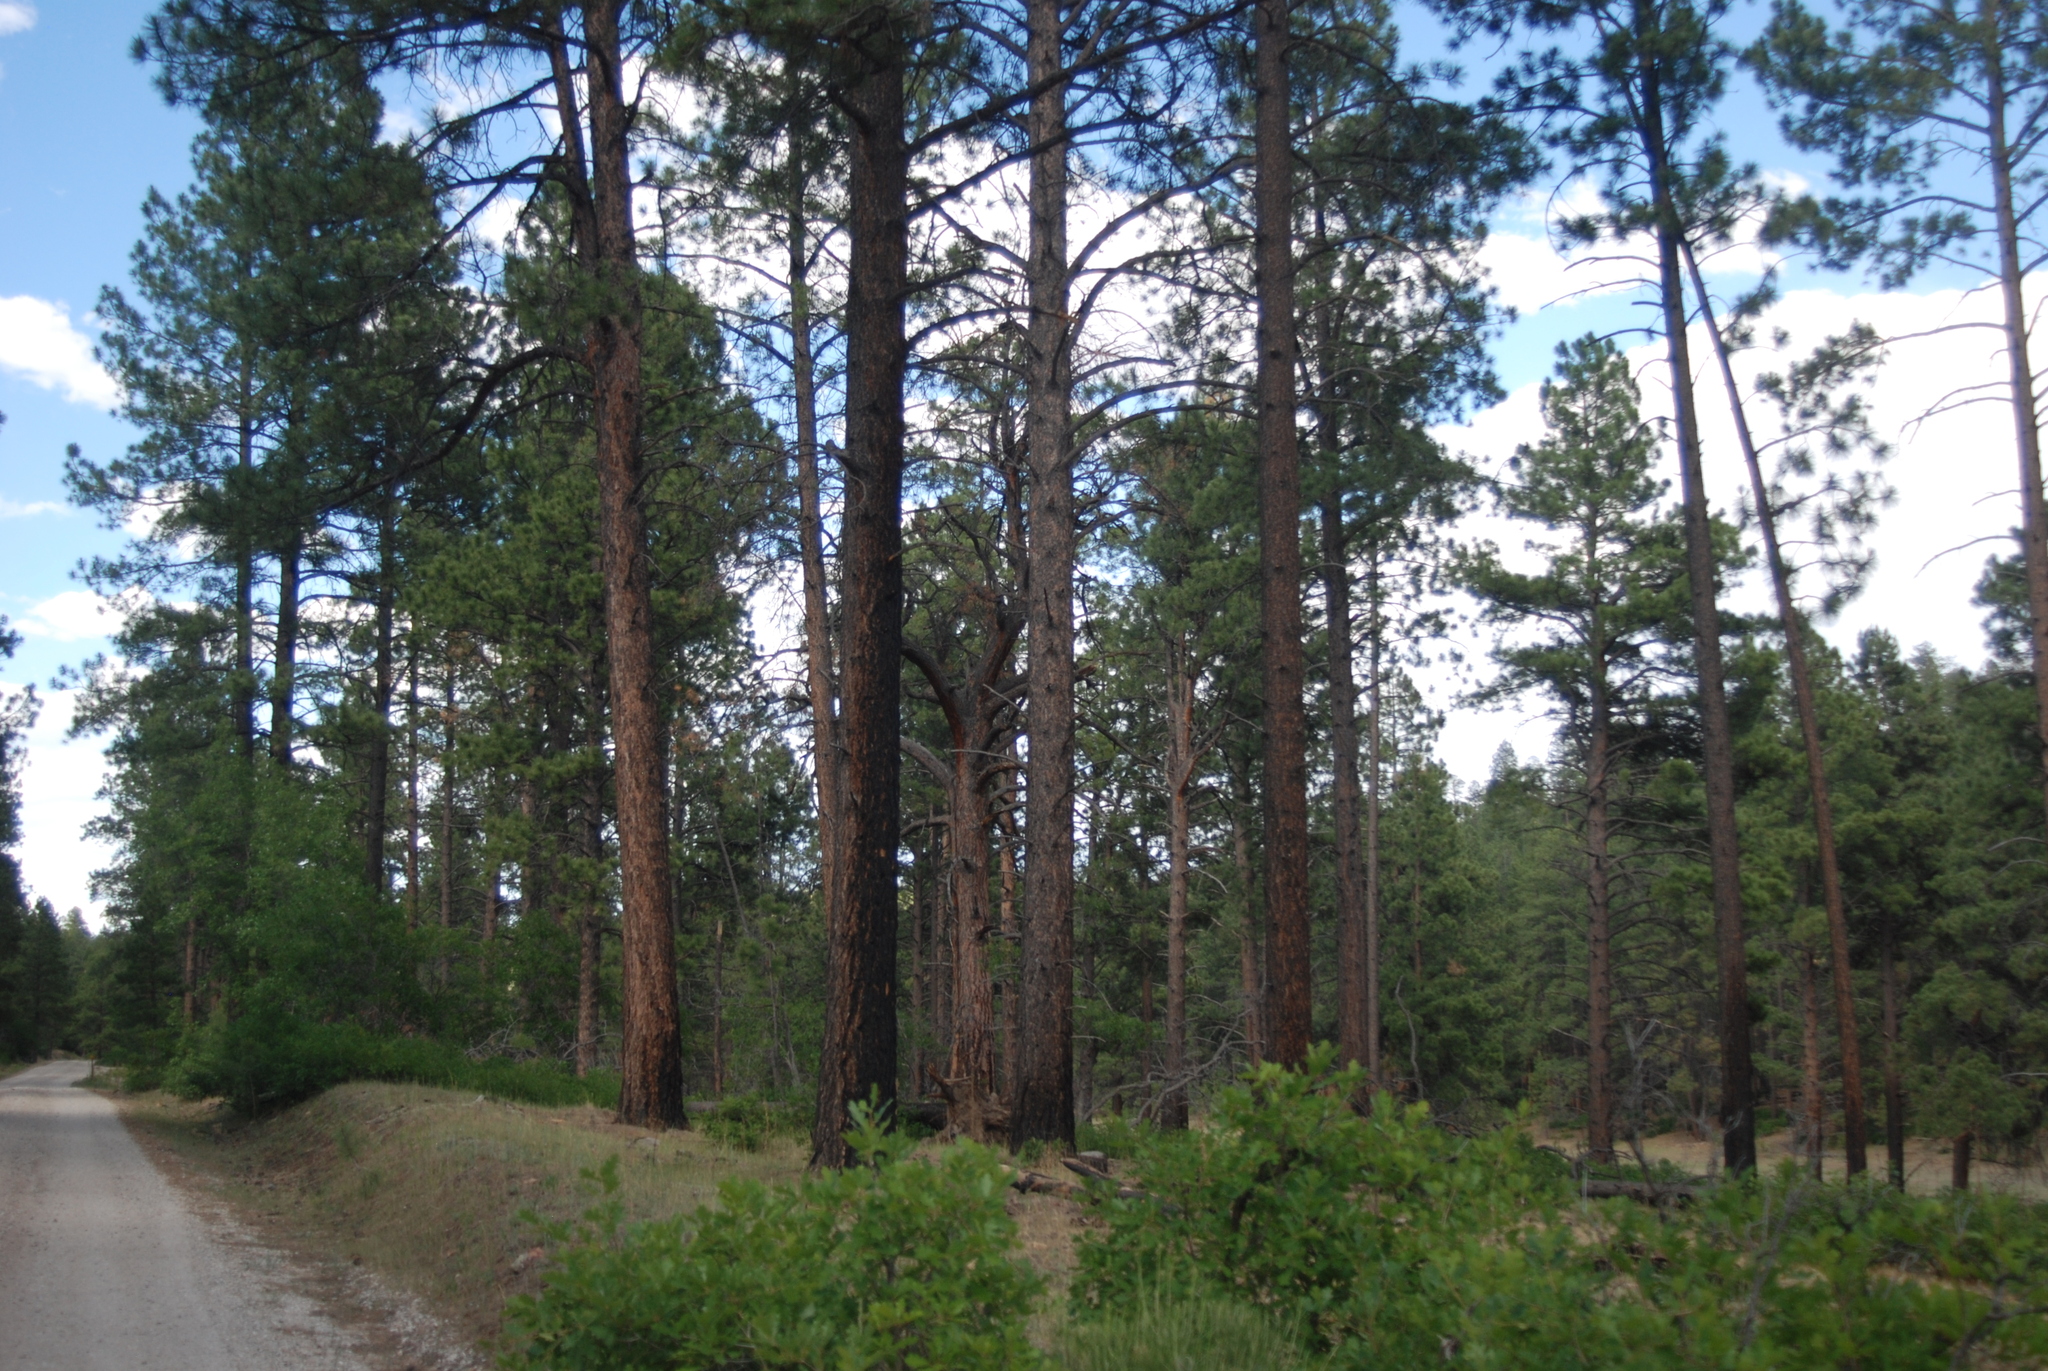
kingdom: Plantae
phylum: Tracheophyta
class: Pinopsida
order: Pinales
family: Pinaceae
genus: Pinus
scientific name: Pinus ponderosa
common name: Western yellow-pine
